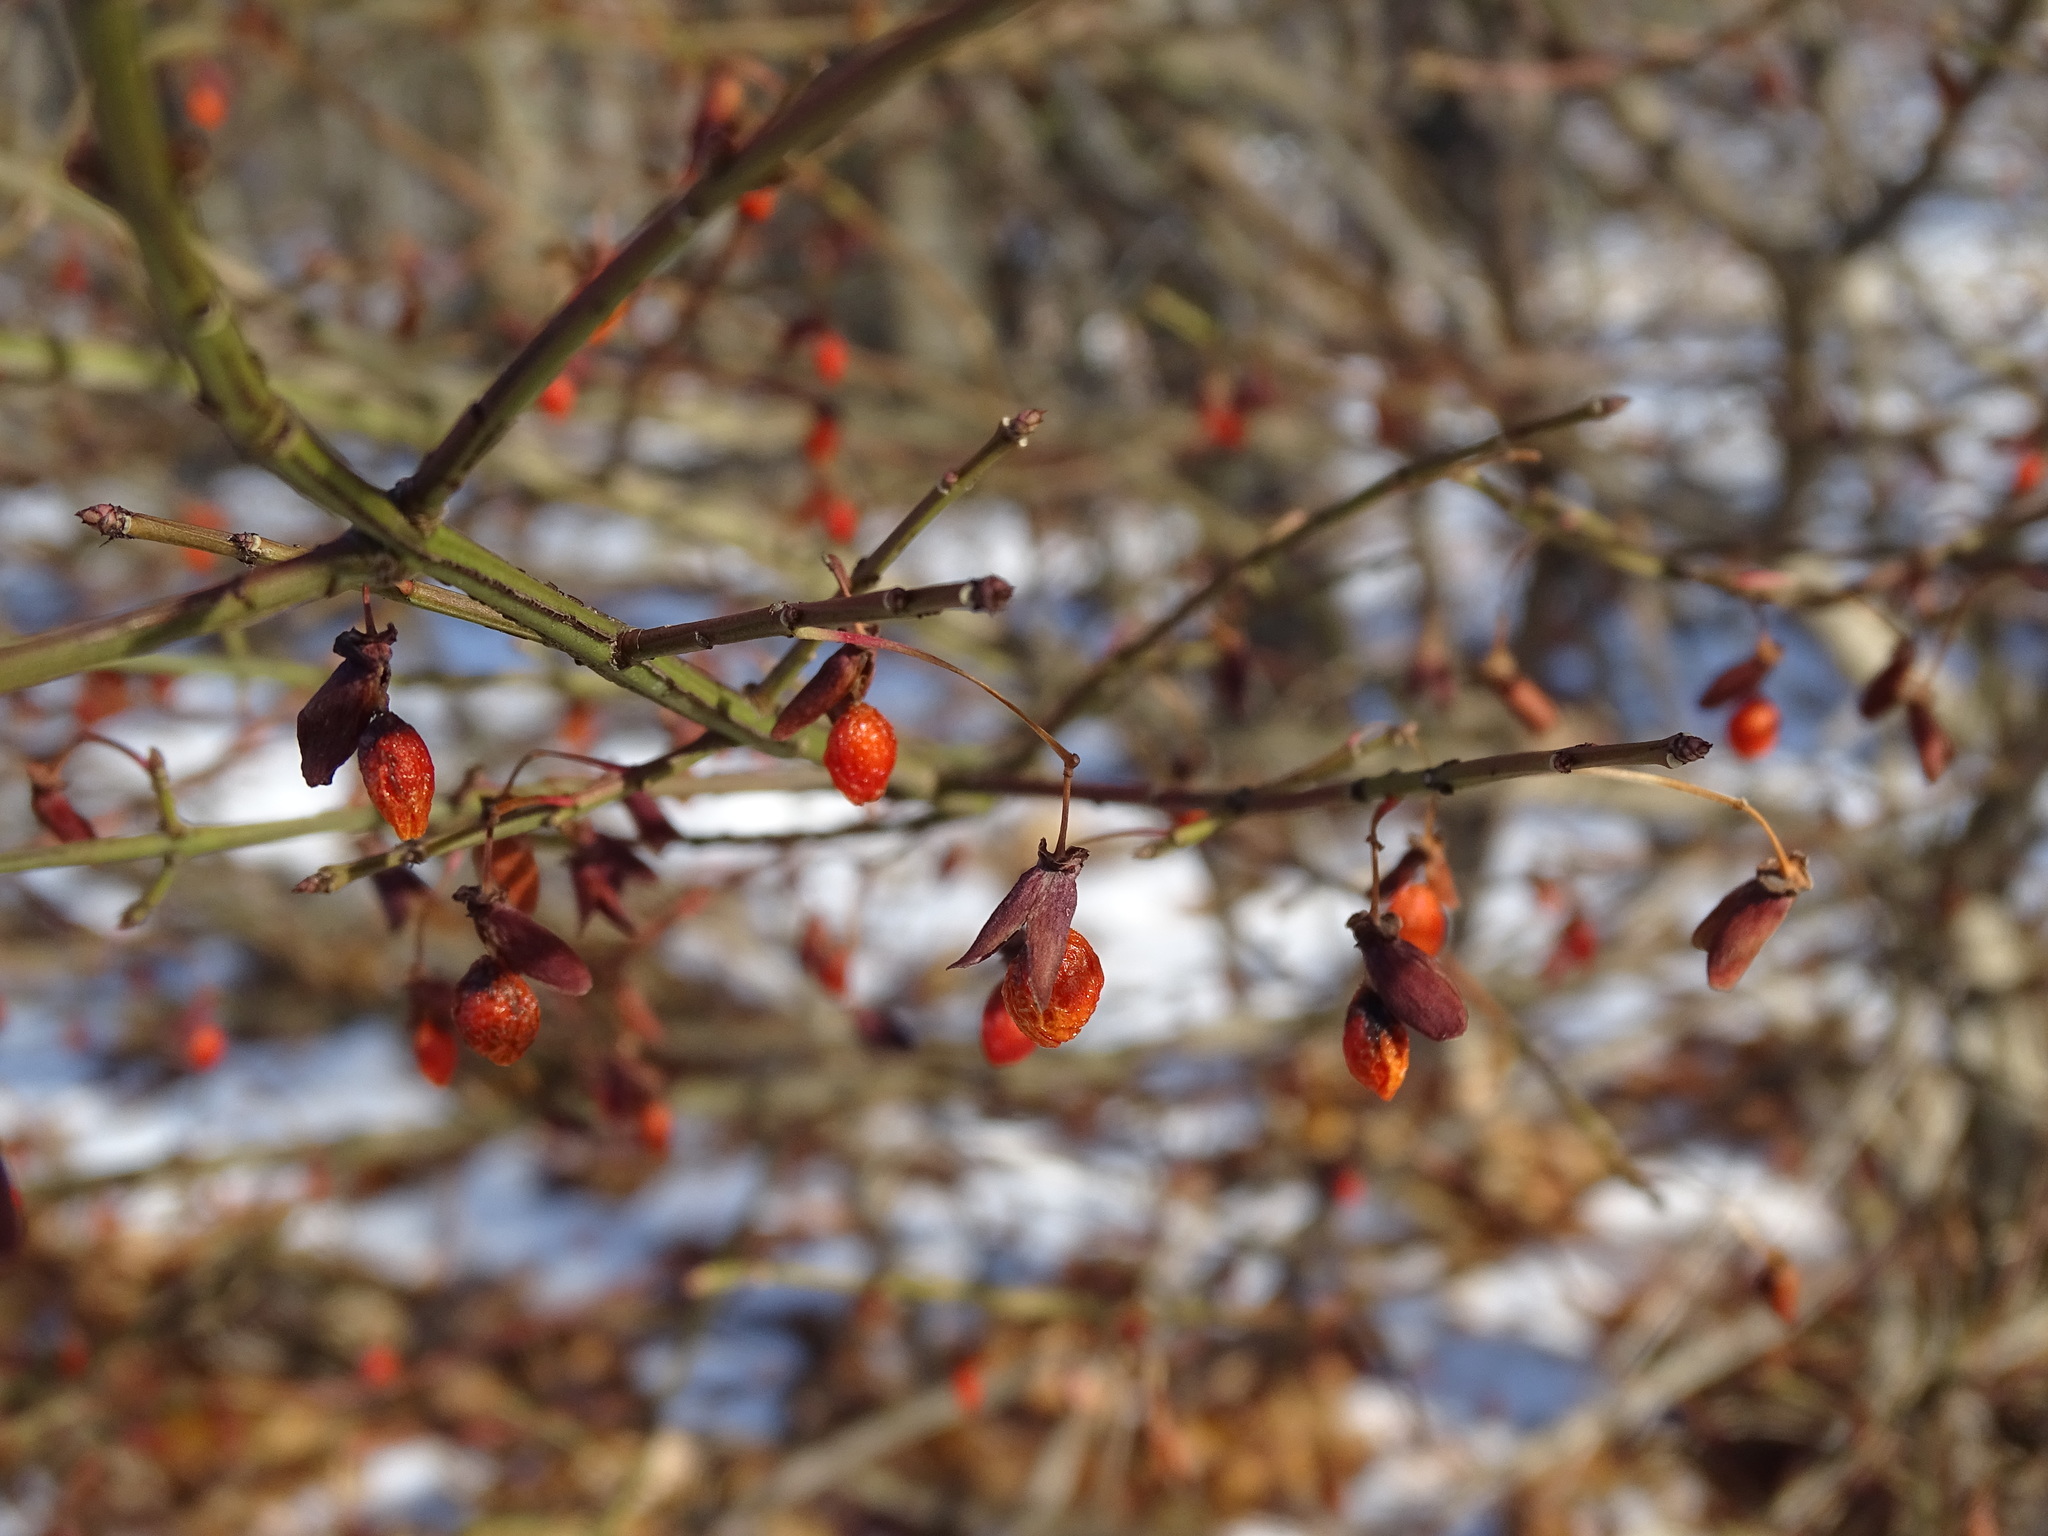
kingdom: Plantae
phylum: Tracheophyta
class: Magnoliopsida
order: Celastrales
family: Celastraceae
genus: Euonymus
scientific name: Euonymus alatus
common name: Winged euonymus
